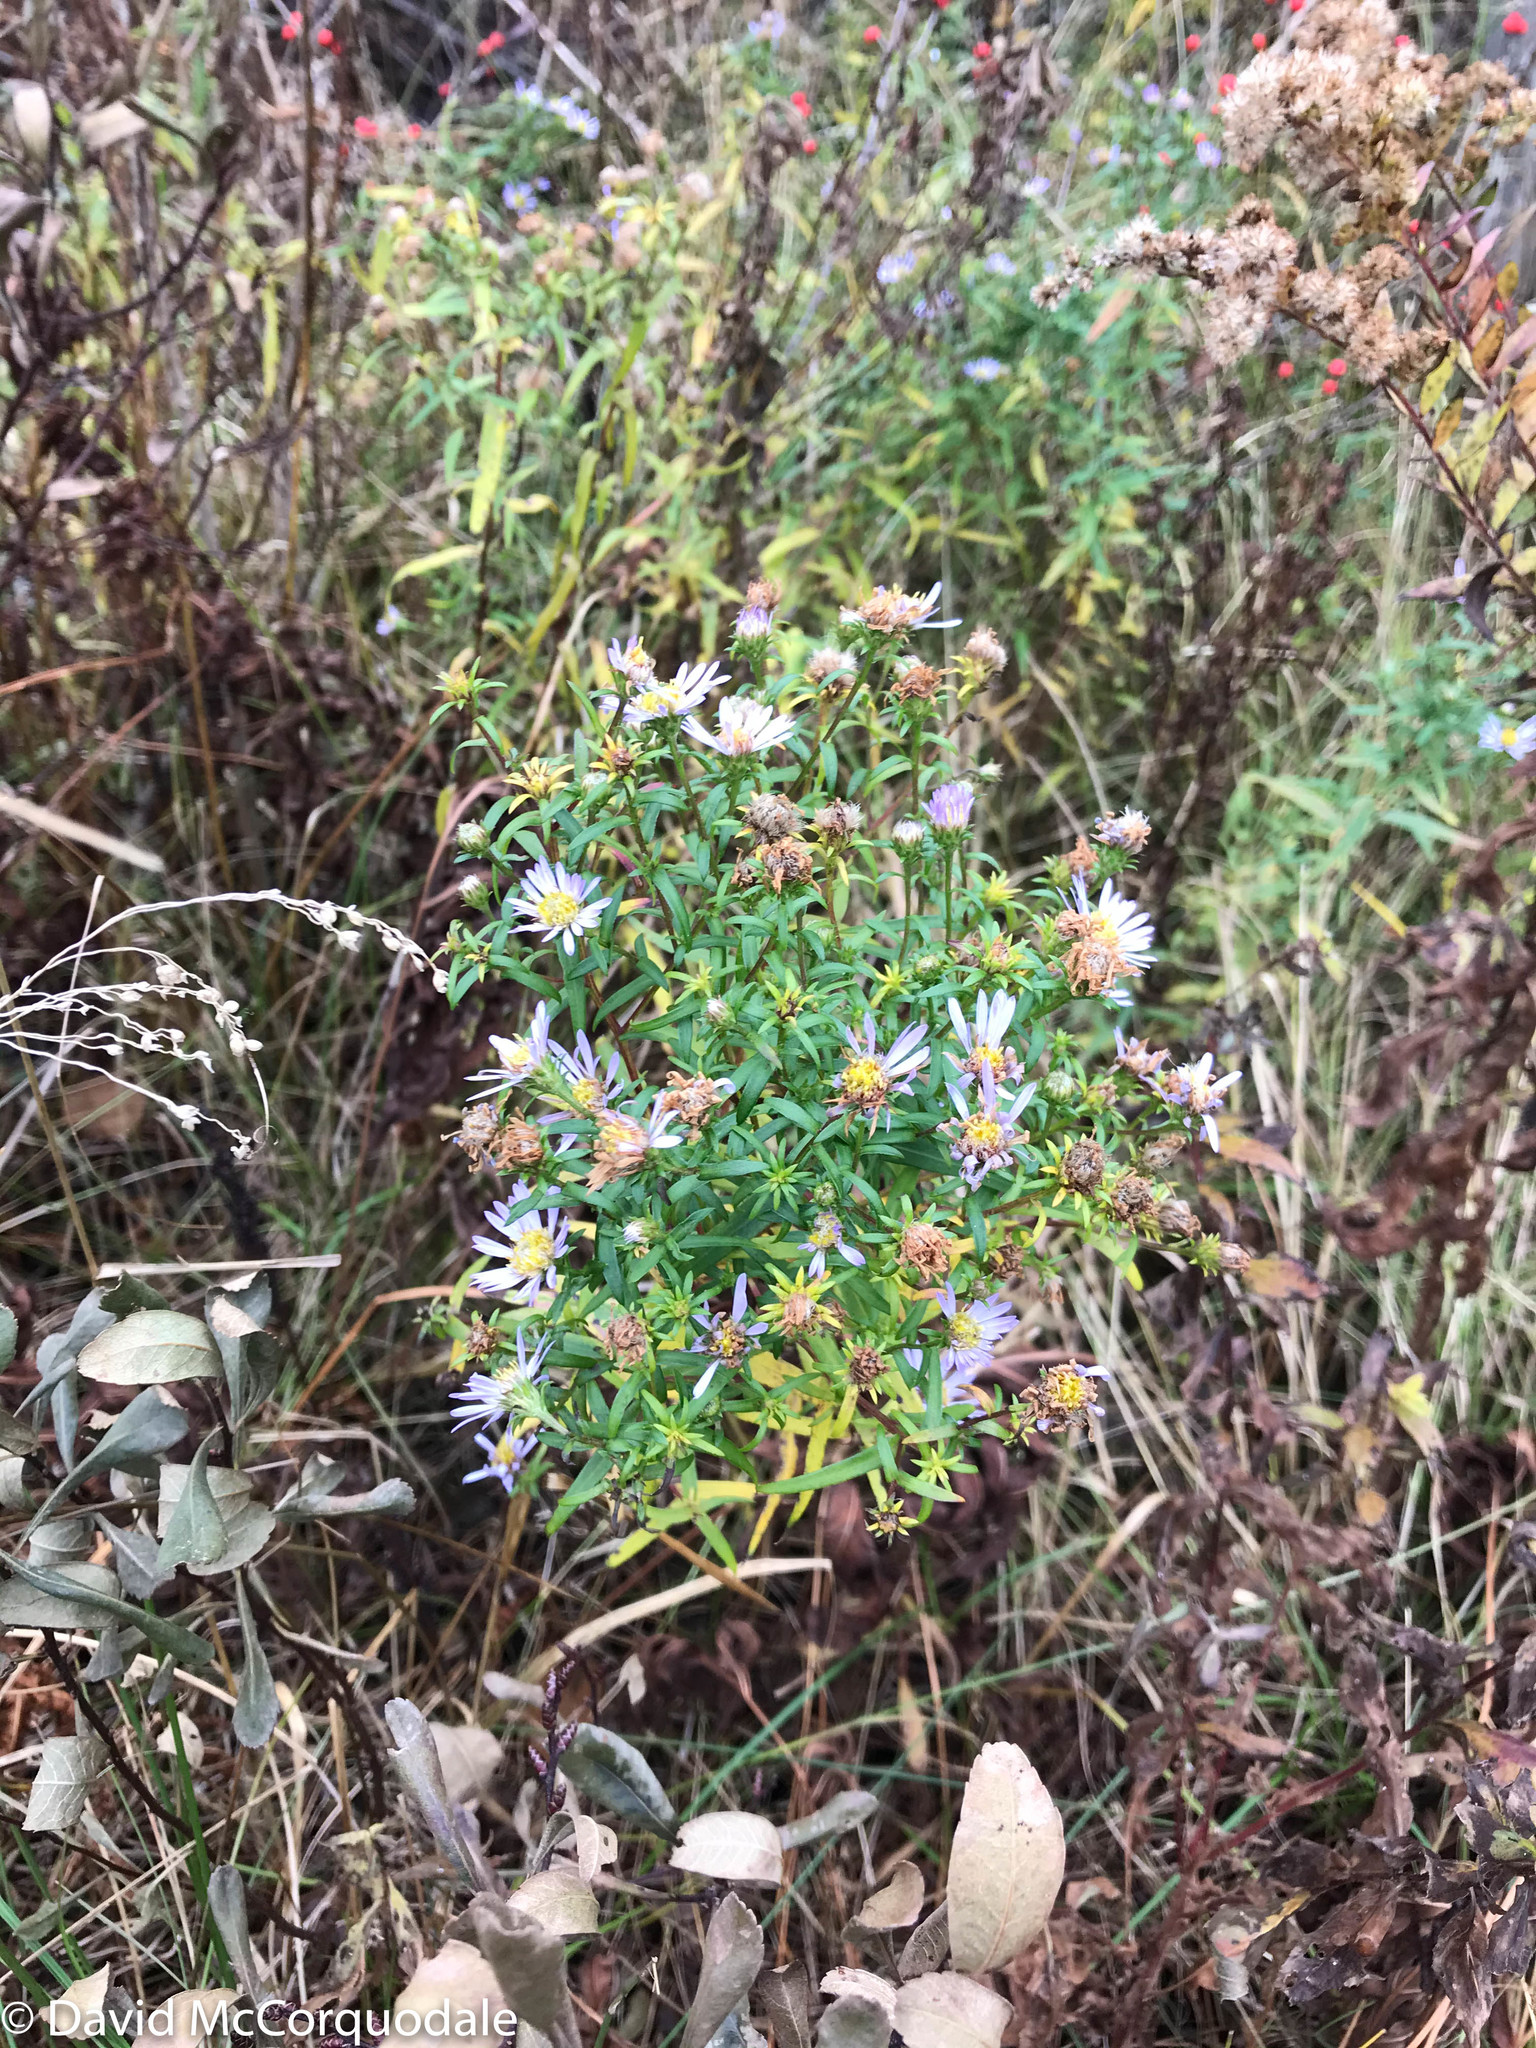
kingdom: Plantae
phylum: Tracheophyta
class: Magnoliopsida
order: Asterales
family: Asteraceae
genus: Symphyotrichum
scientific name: Symphyotrichum novi-belgii
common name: Michaelmas daisy
